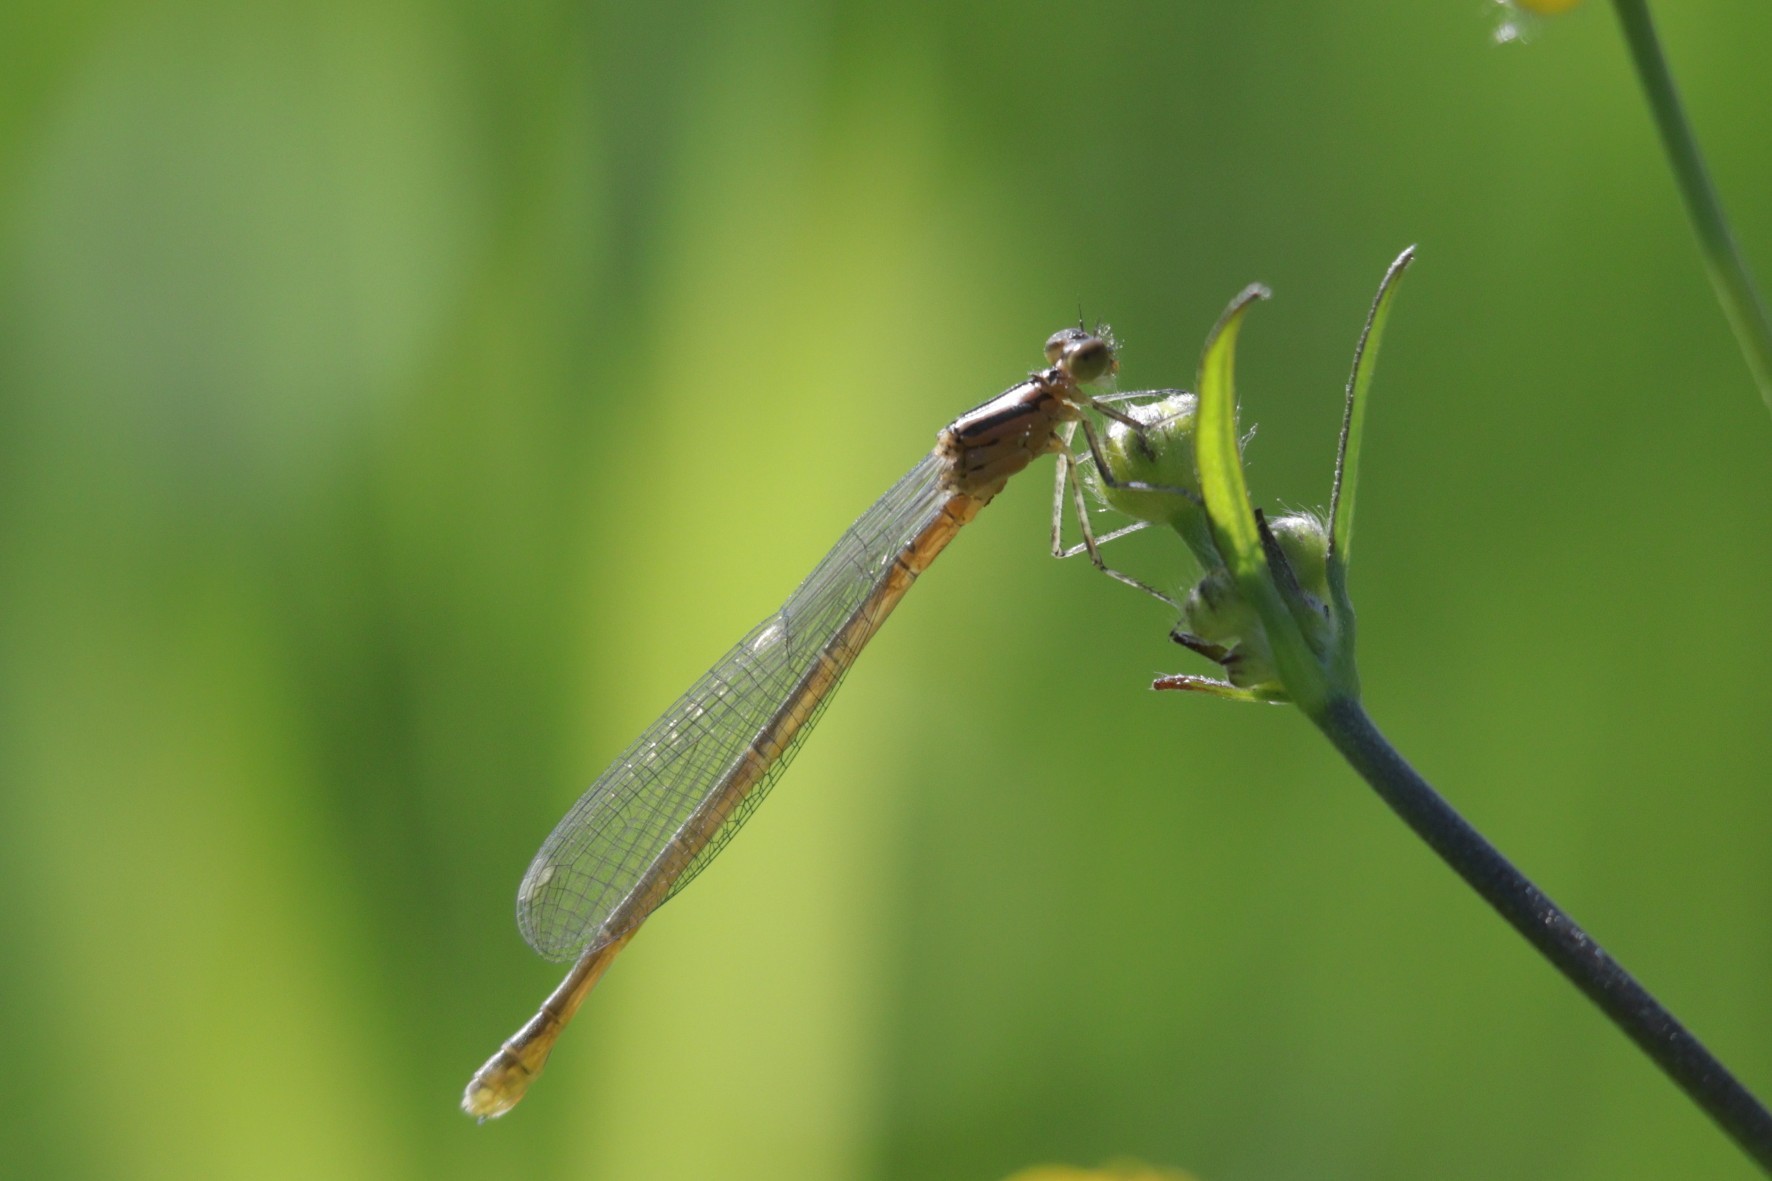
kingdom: Animalia
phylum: Arthropoda
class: Insecta
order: Odonata
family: Coenagrionidae
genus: Coenagrion
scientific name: Coenagrion hastulatum
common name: Spearhead bluet
